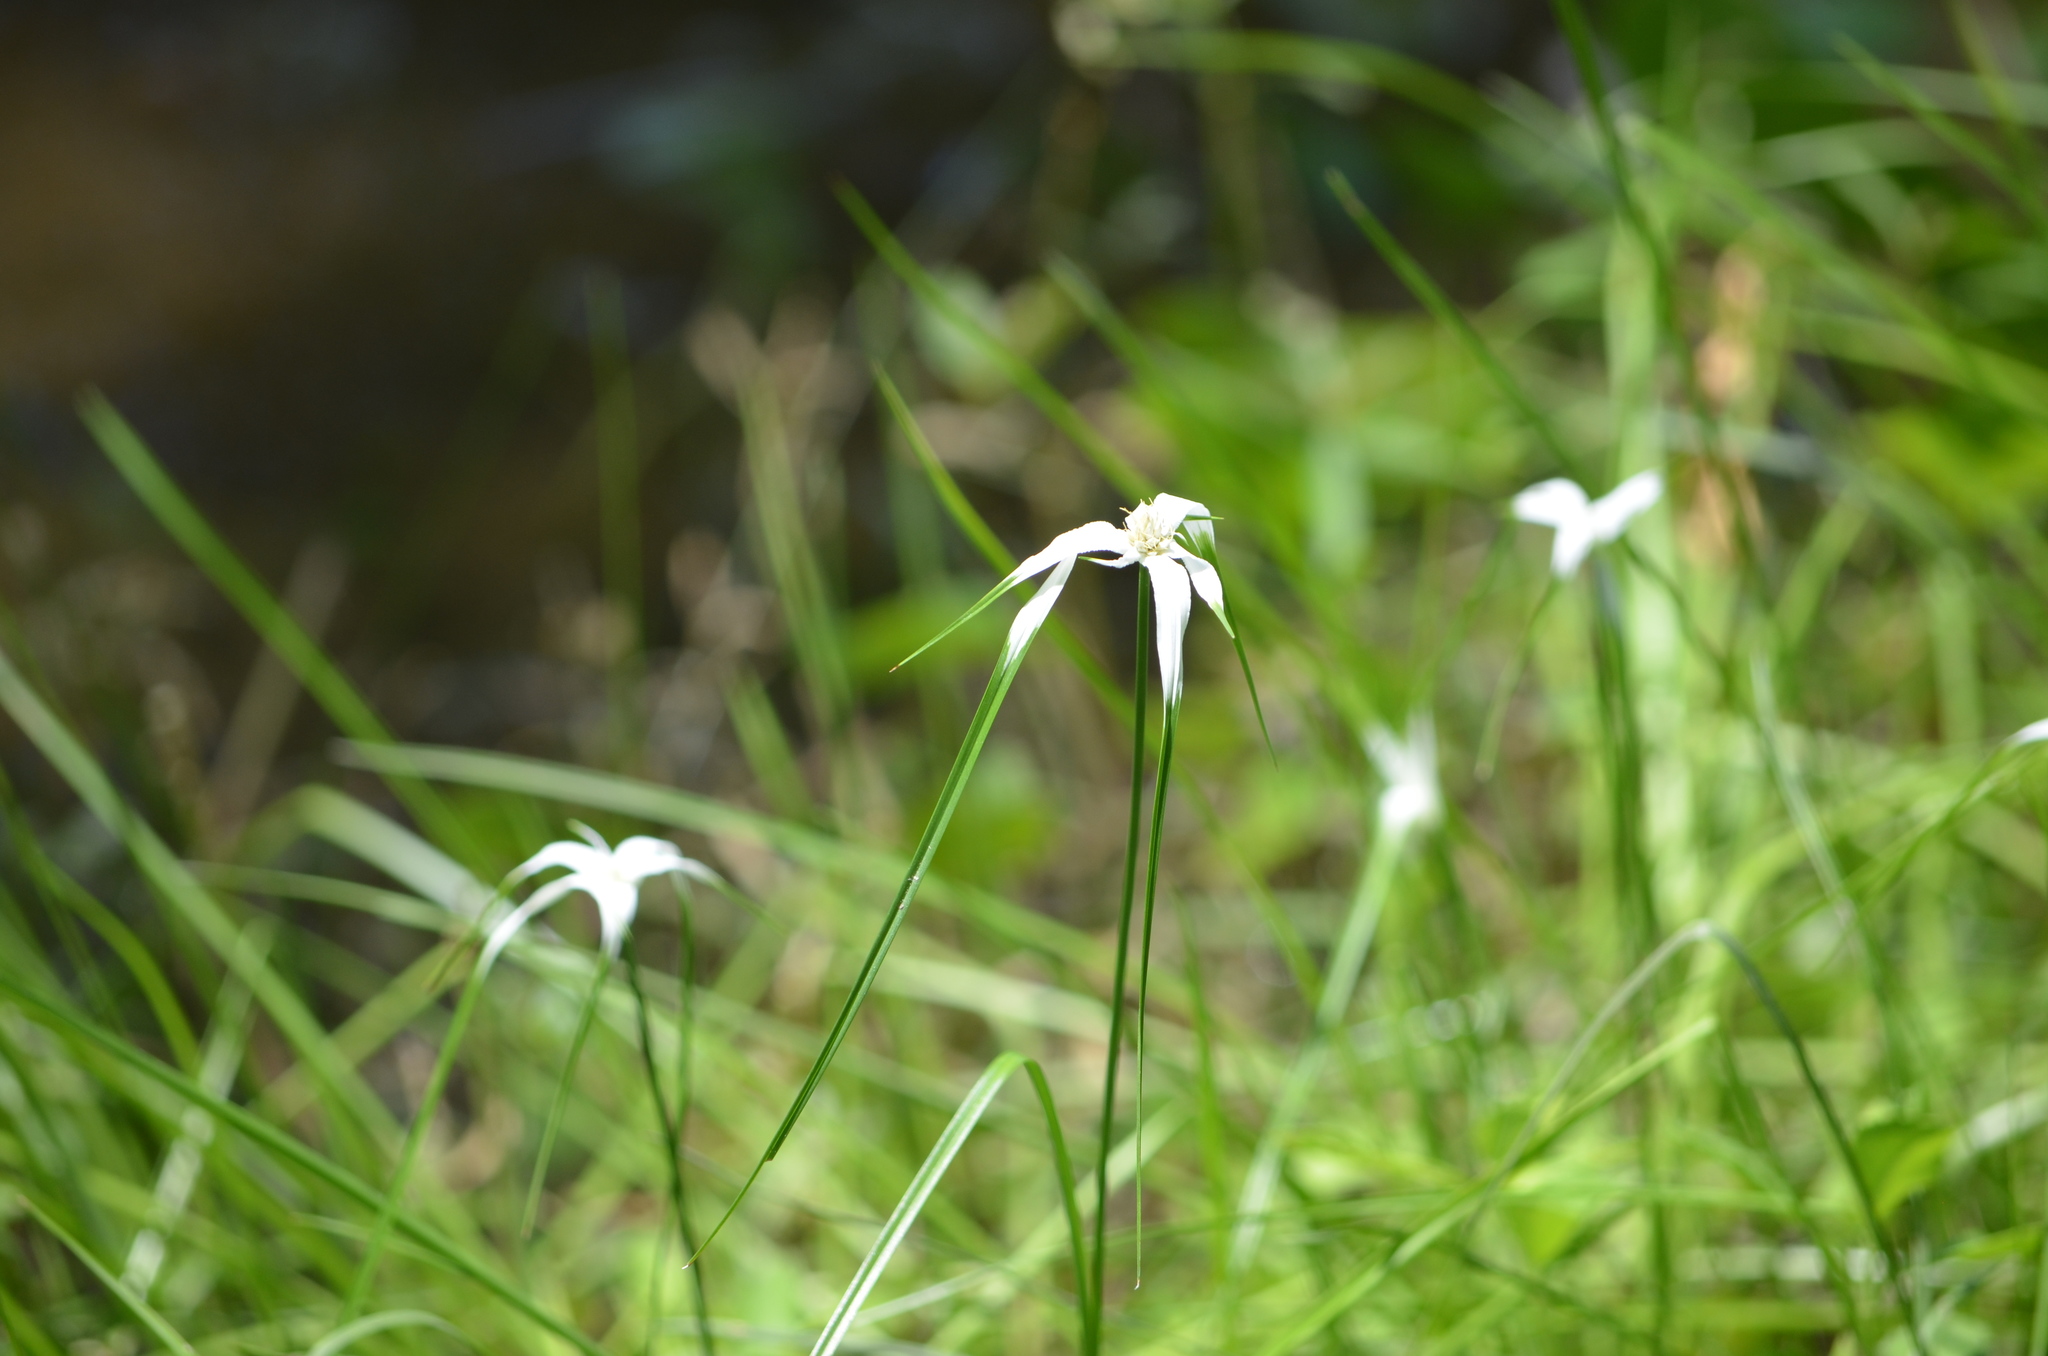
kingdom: Plantae
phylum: Tracheophyta
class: Liliopsida
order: Poales
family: Cyperaceae
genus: Rhynchospora
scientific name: Rhynchospora colorata
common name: Star sedge
